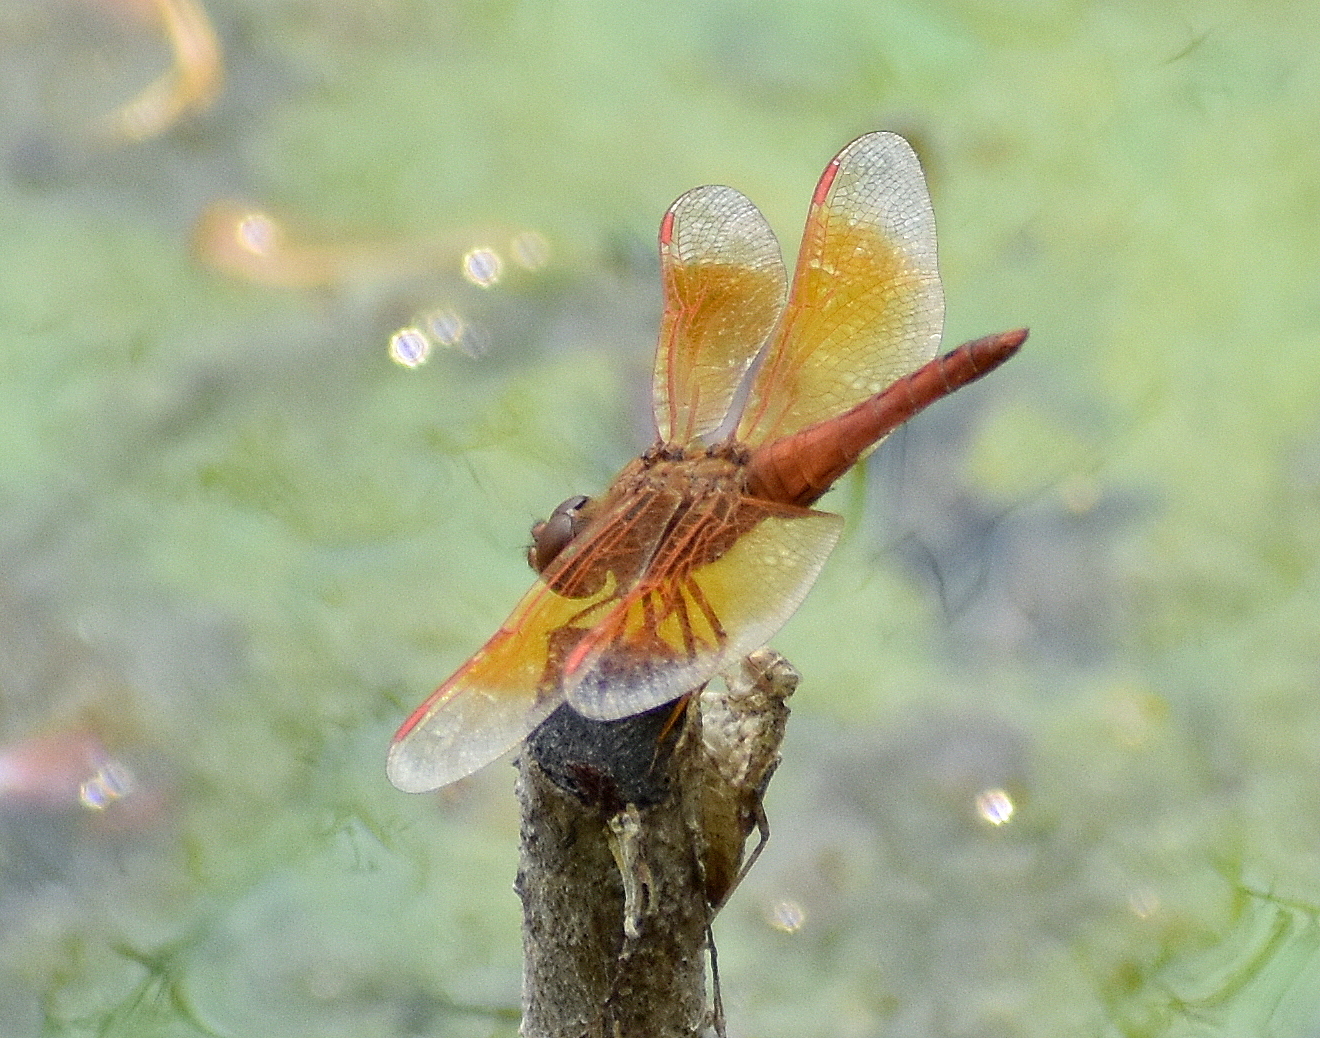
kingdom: Animalia
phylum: Arthropoda
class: Insecta
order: Odonata
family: Libellulidae
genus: Brachythemis
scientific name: Brachythemis contaminata
